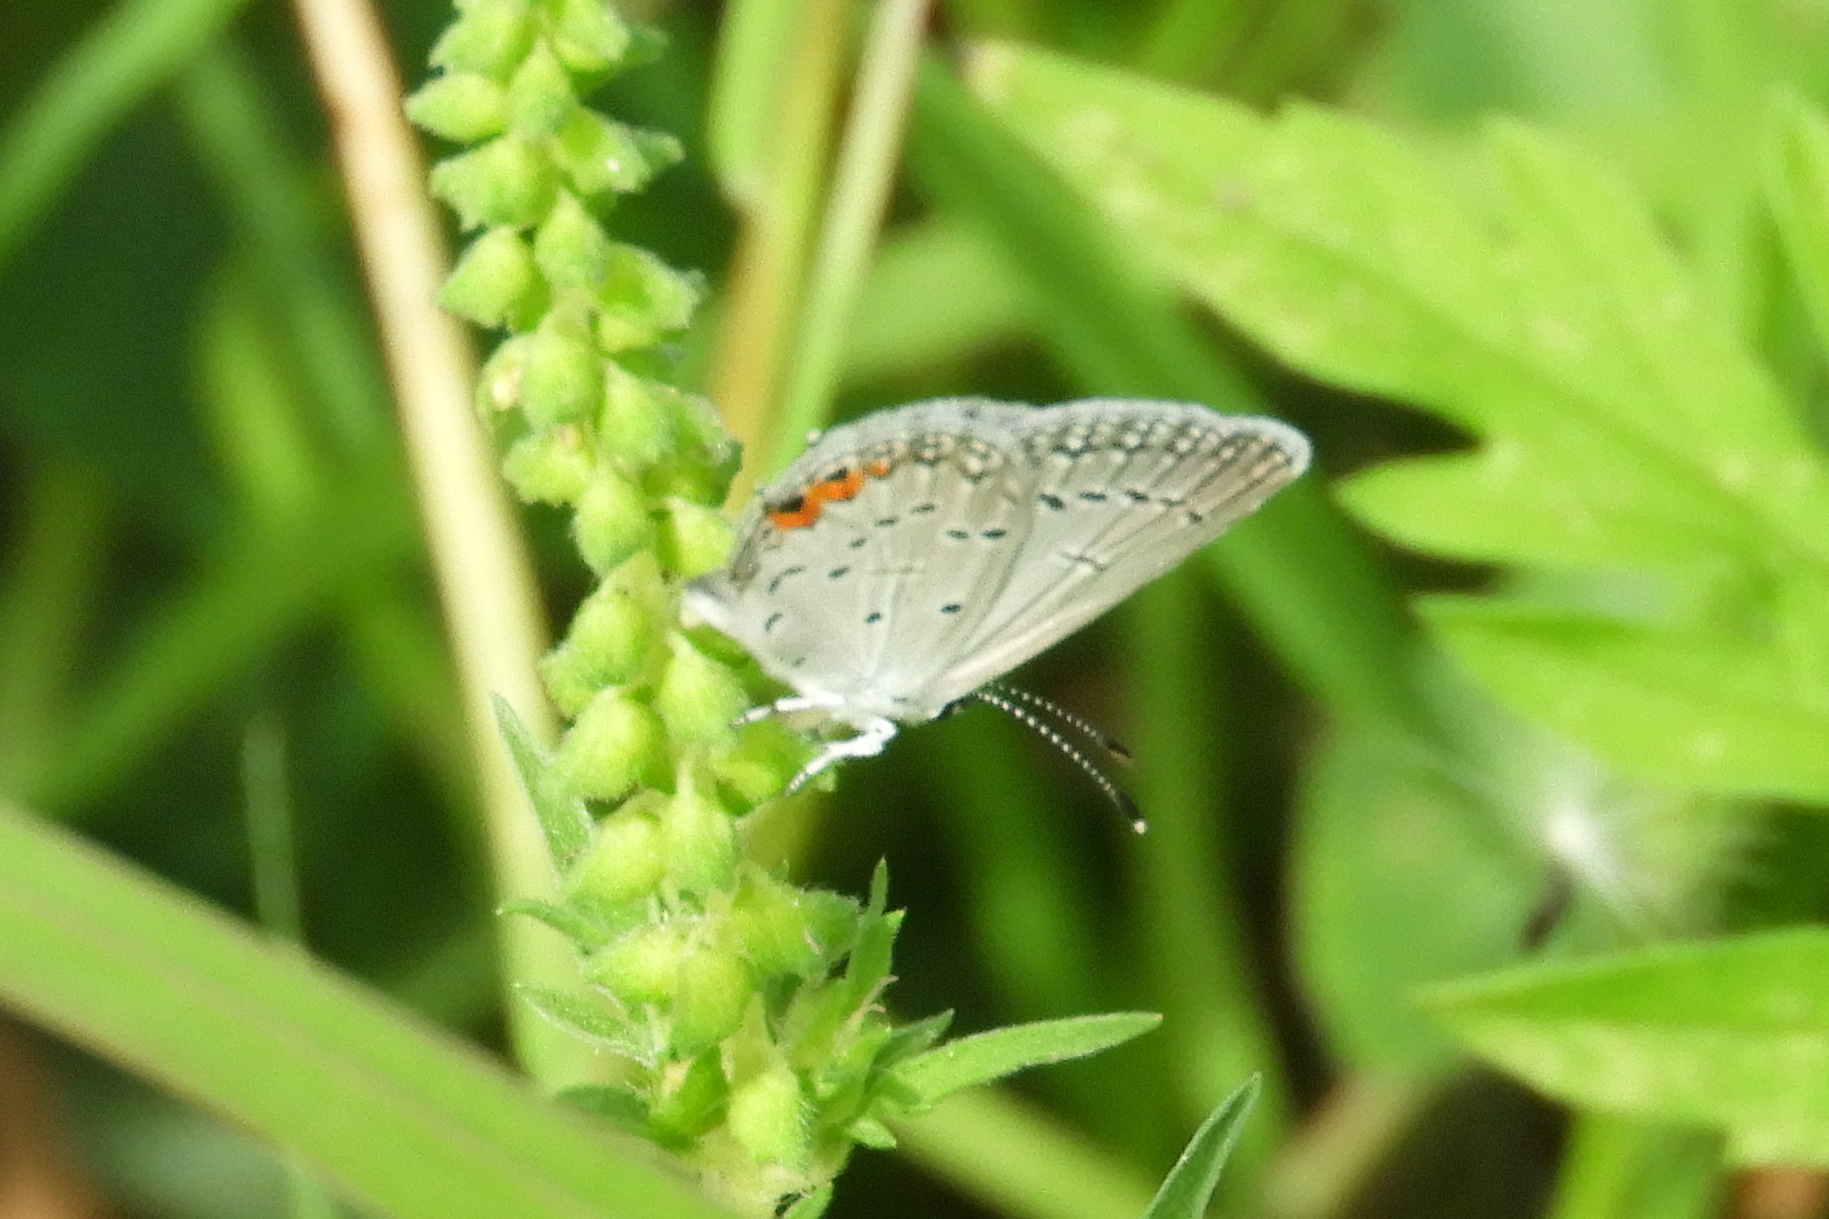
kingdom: Animalia
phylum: Arthropoda
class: Insecta
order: Lepidoptera
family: Lycaenidae
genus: Elkalyce
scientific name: Elkalyce comyntas
